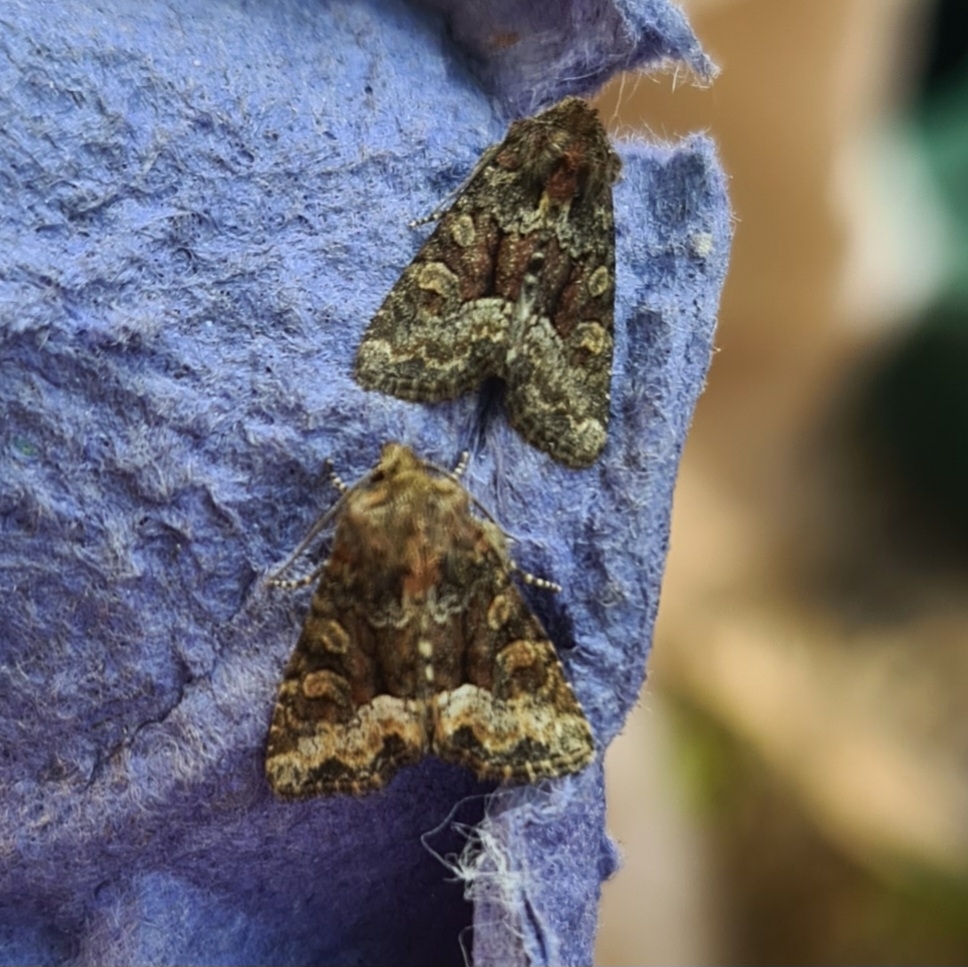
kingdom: Animalia
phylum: Arthropoda
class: Insecta
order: Lepidoptera
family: Noctuidae
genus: Oligia
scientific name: Oligia strigilis
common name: Marbled minor
